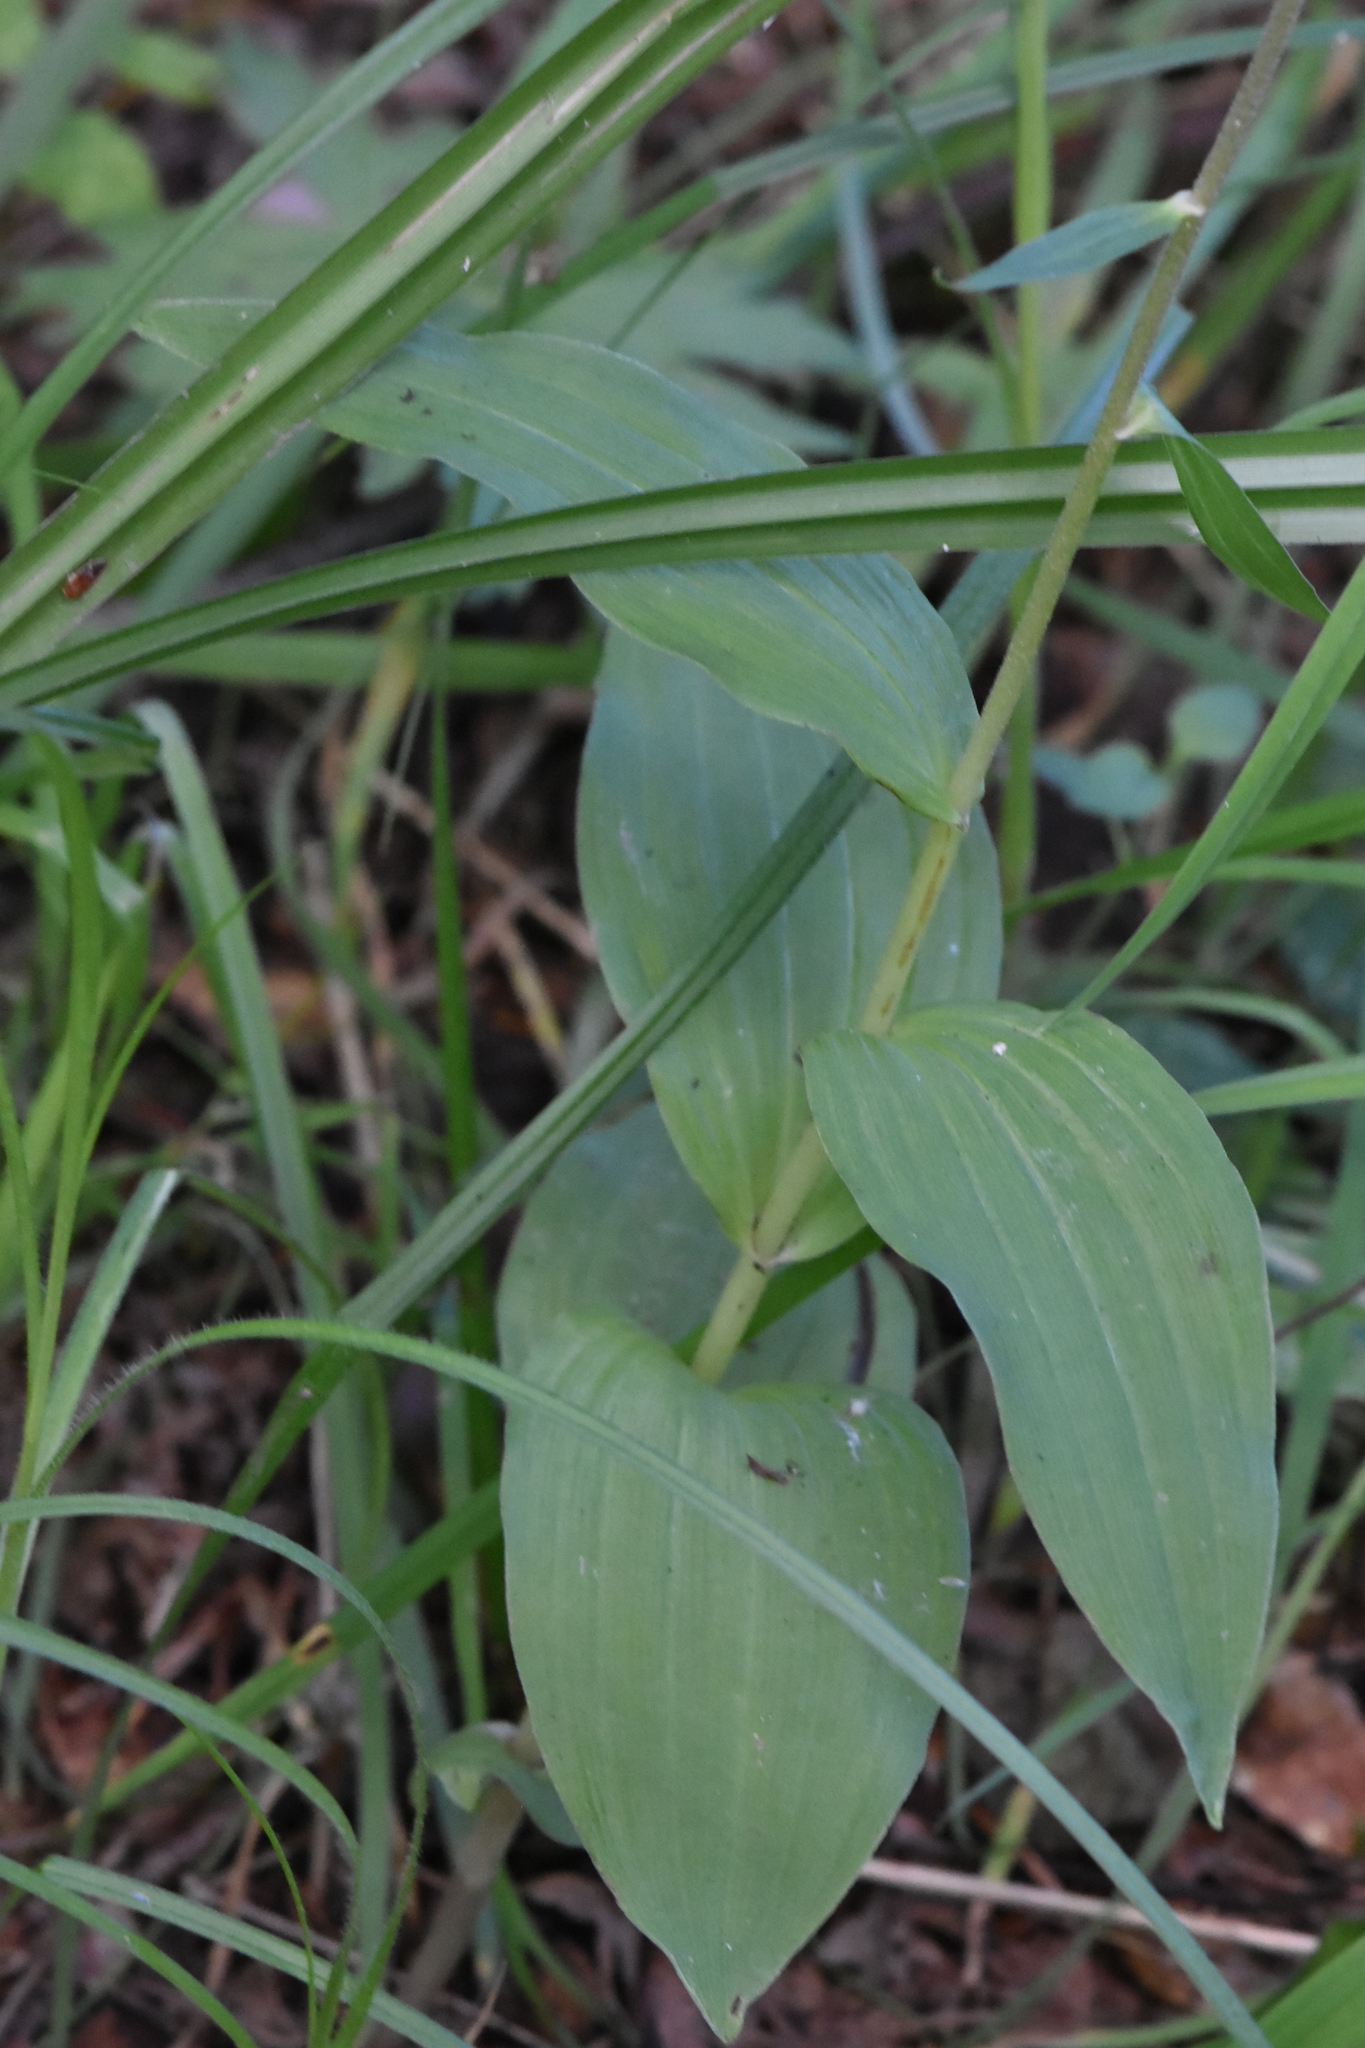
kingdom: Plantae
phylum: Tracheophyta
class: Liliopsida
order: Asparagales
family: Orchidaceae
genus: Epipactis
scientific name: Epipactis helleborine
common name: Broad-leaved helleborine
